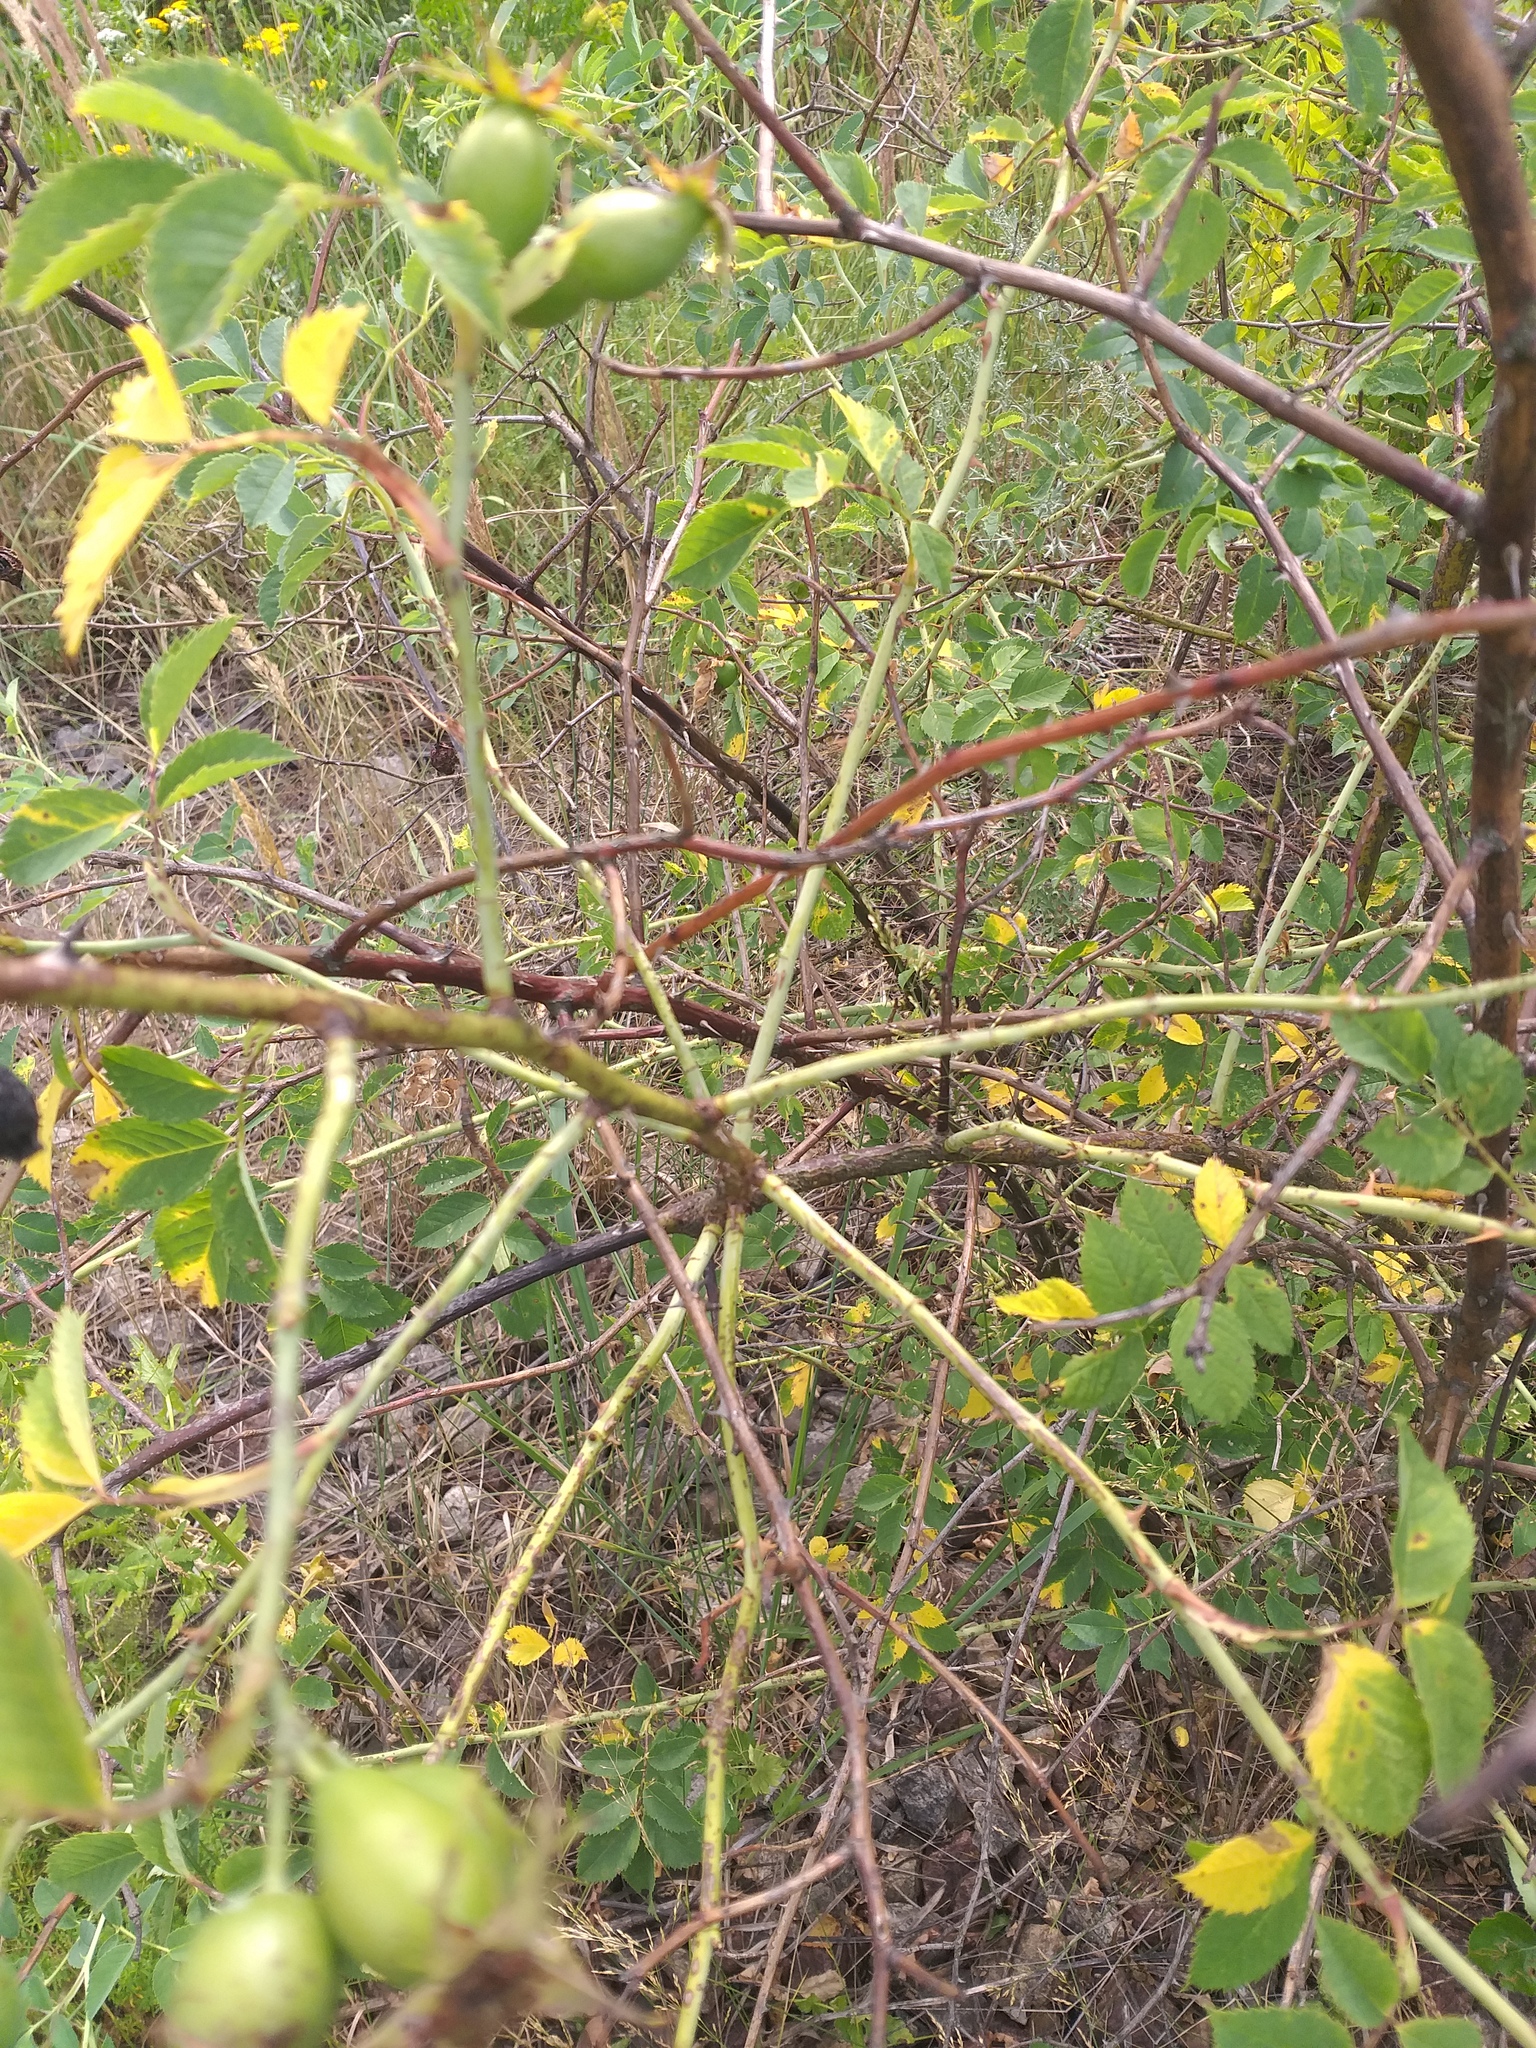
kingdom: Plantae
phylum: Tracheophyta
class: Magnoliopsida
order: Rosales
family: Rosaceae
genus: Rosa
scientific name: Rosa dumalis
